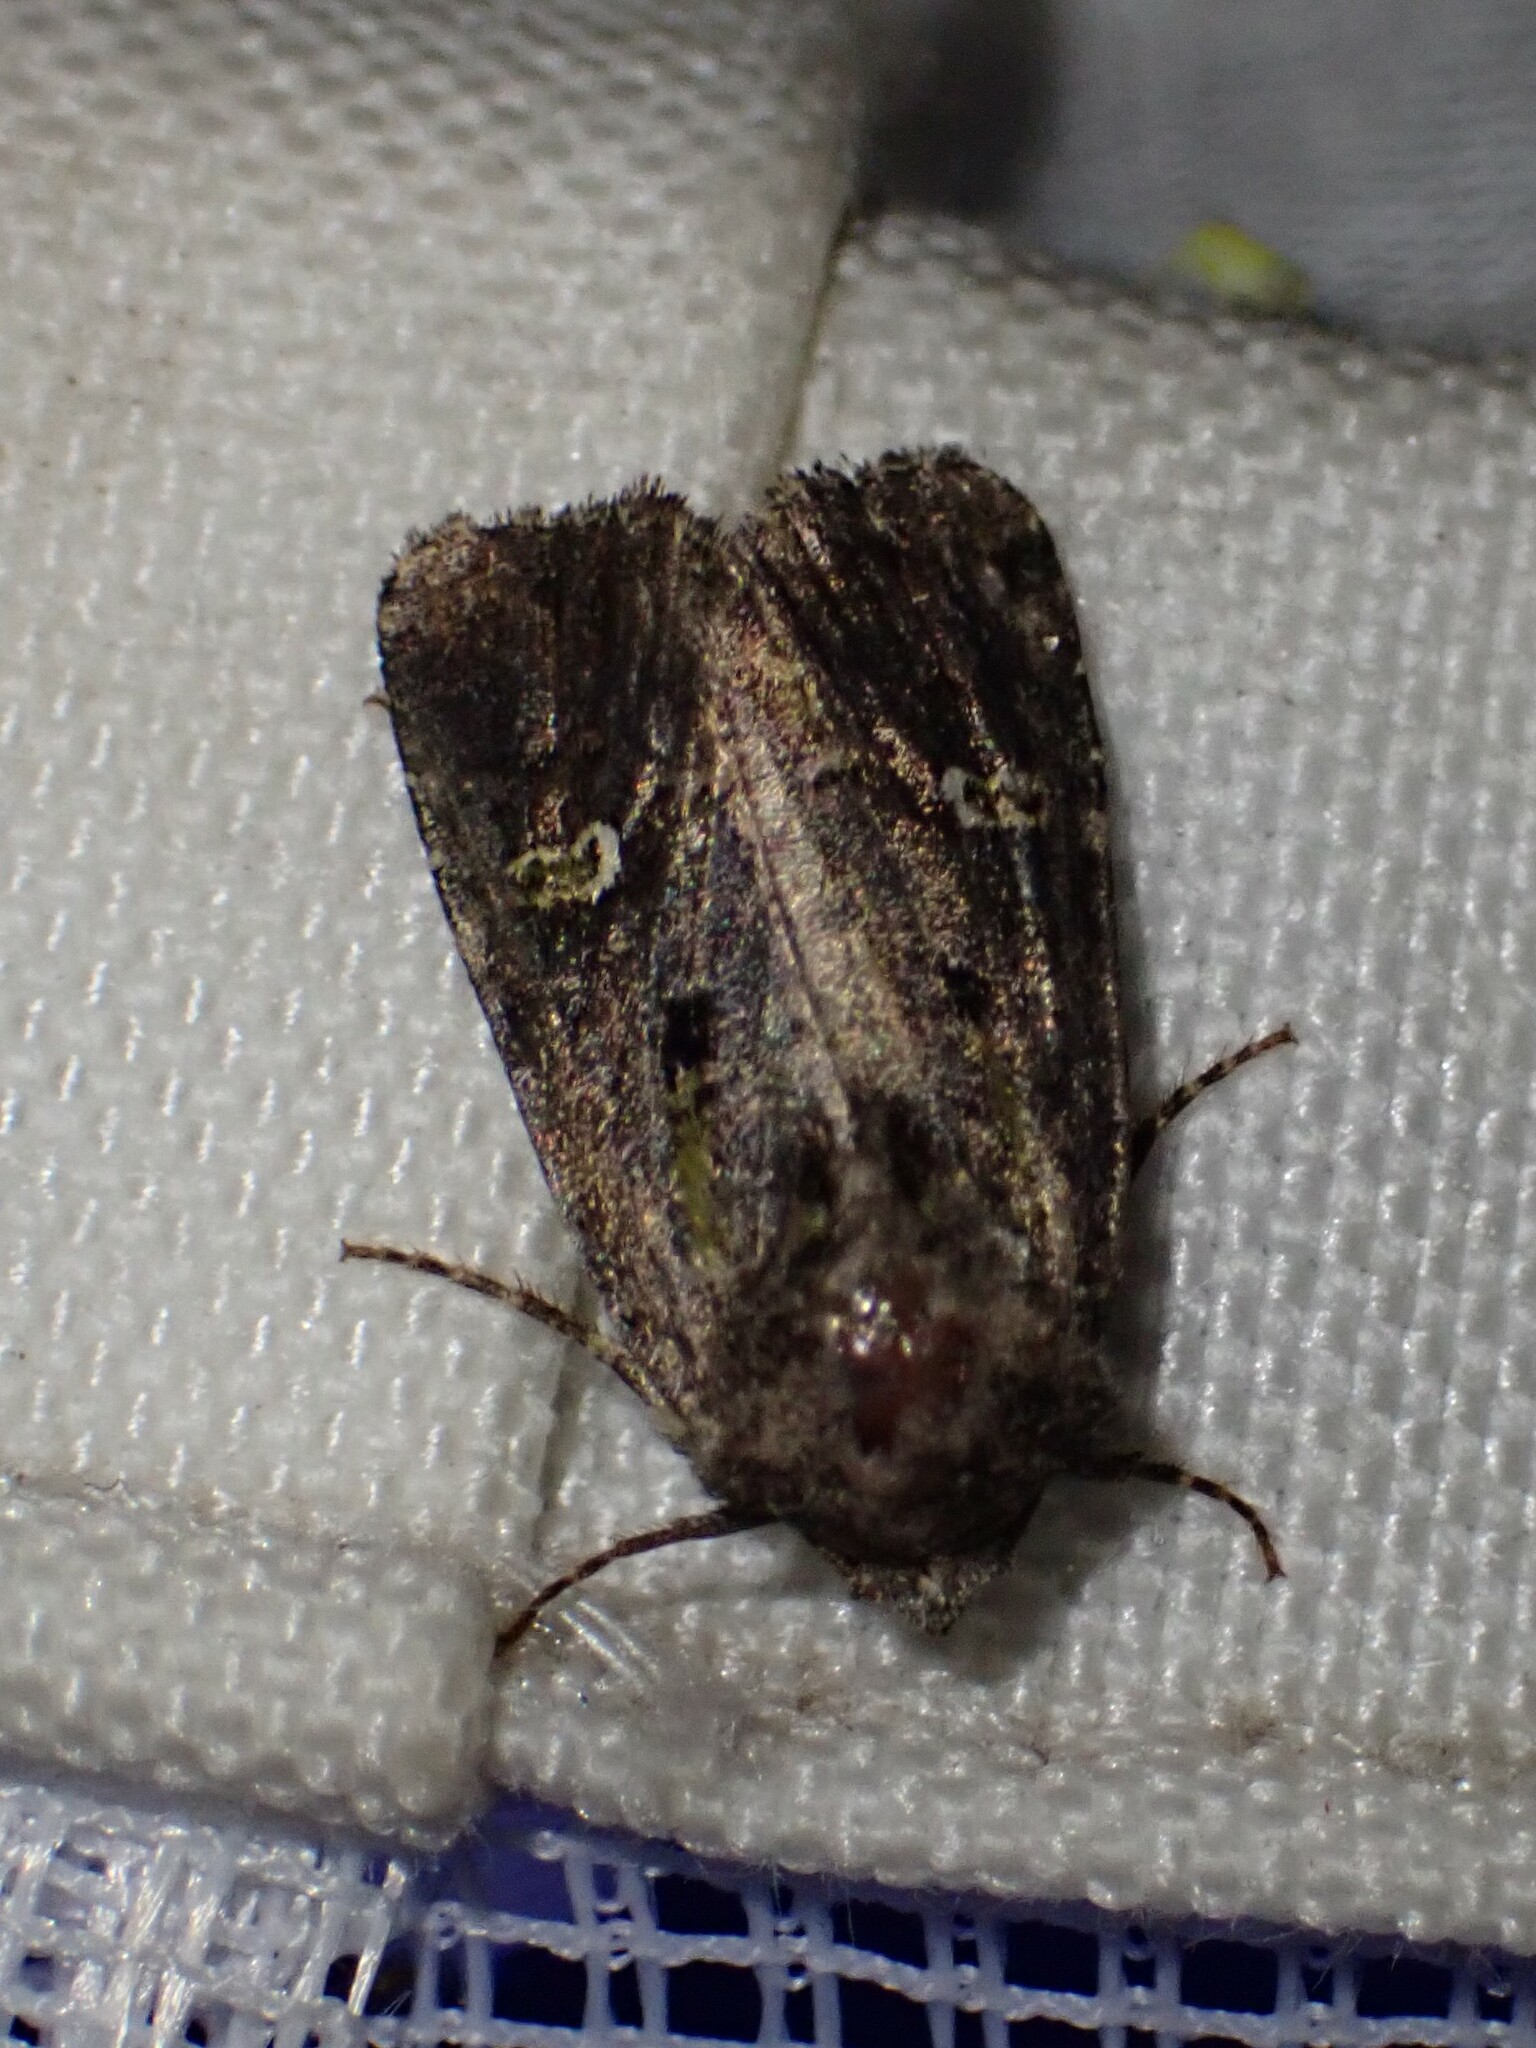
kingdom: Animalia
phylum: Arthropoda
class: Insecta
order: Lepidoptera
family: Noctuidae
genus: Lacinipolia
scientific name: Lacinipolia renigera
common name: Kidney-spotted minor
